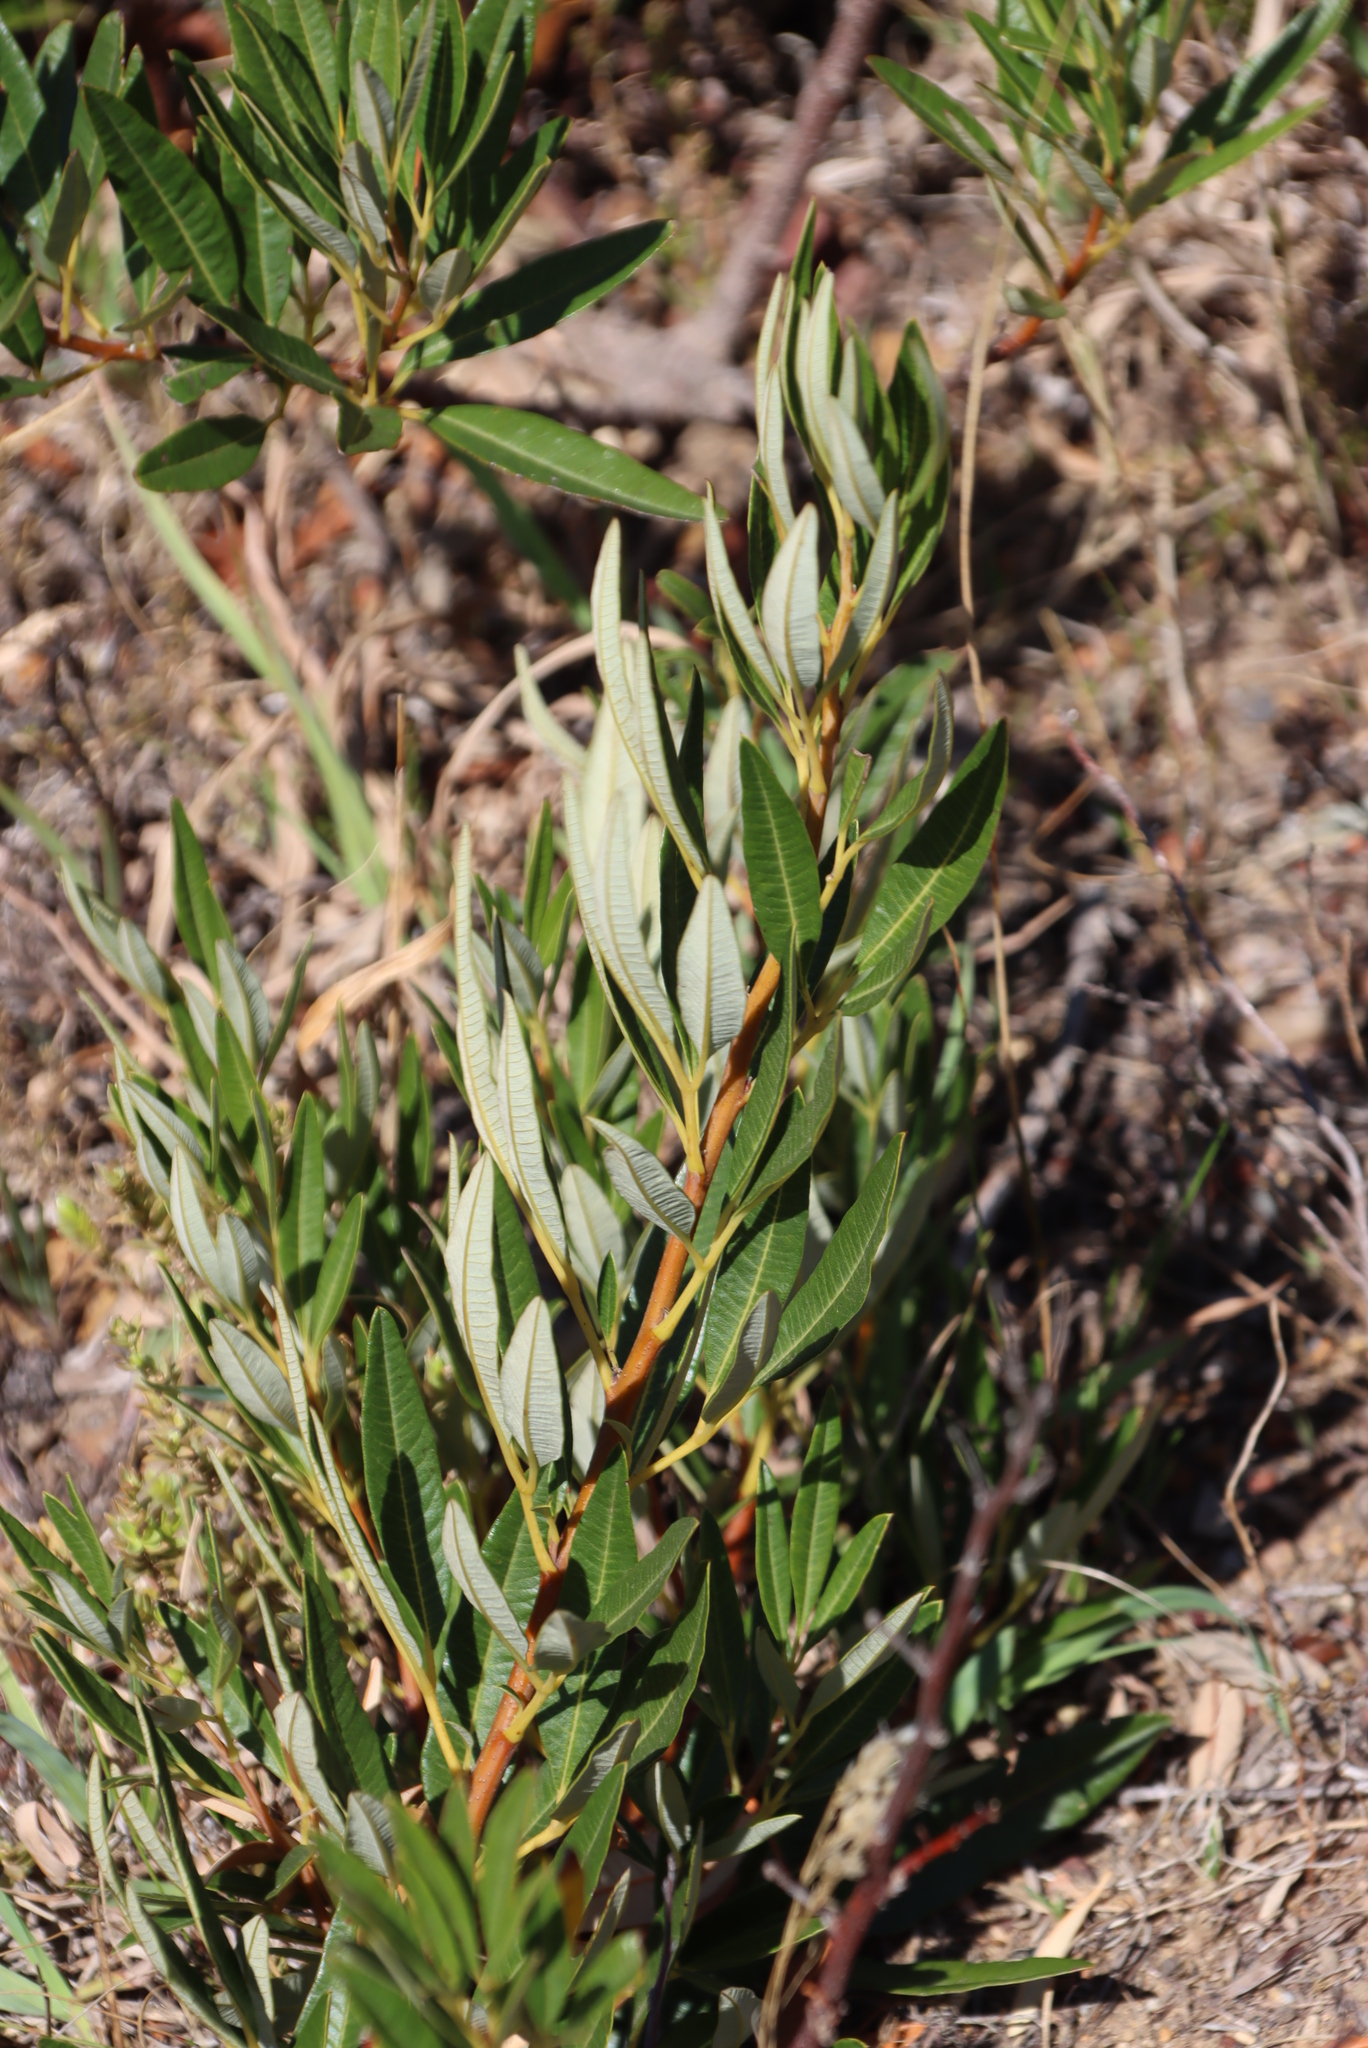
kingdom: Plantae
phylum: Tracheophyta
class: Magnoliopsida
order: Sapindales
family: Anacardiaceae
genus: Searsia
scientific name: Searsia angustifolia
